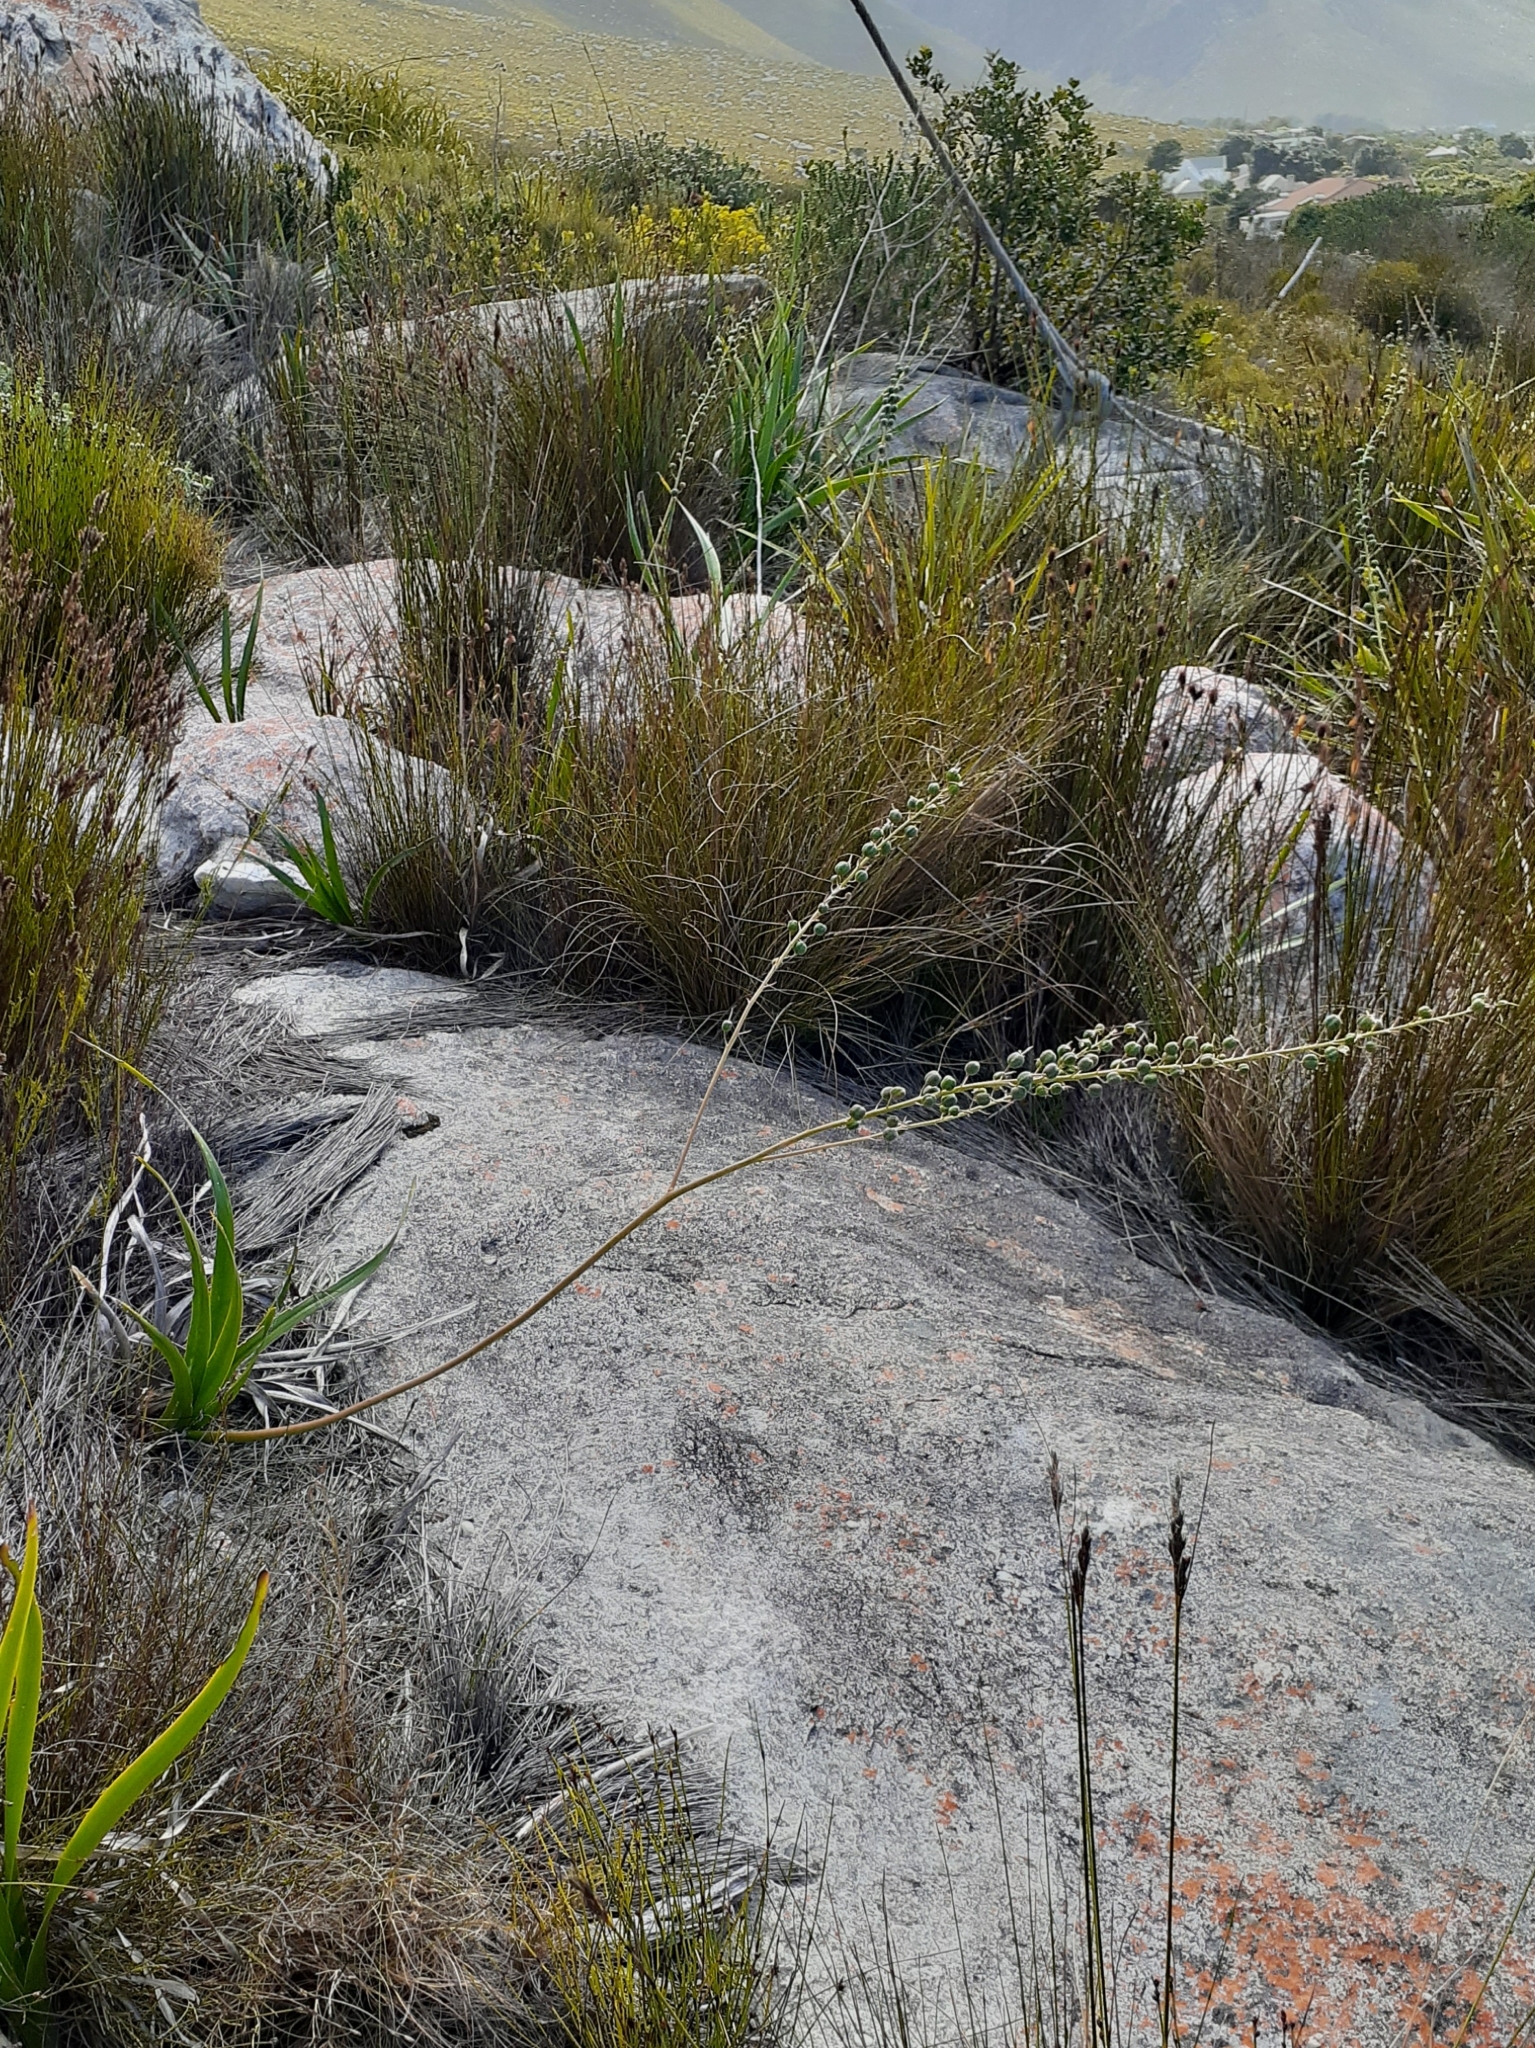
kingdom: Plantae
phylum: Tracheophyta
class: Liliopsida
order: Asparagales
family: Asphodelaceae
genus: Trachyandra
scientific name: Trachyandra hirsuta
